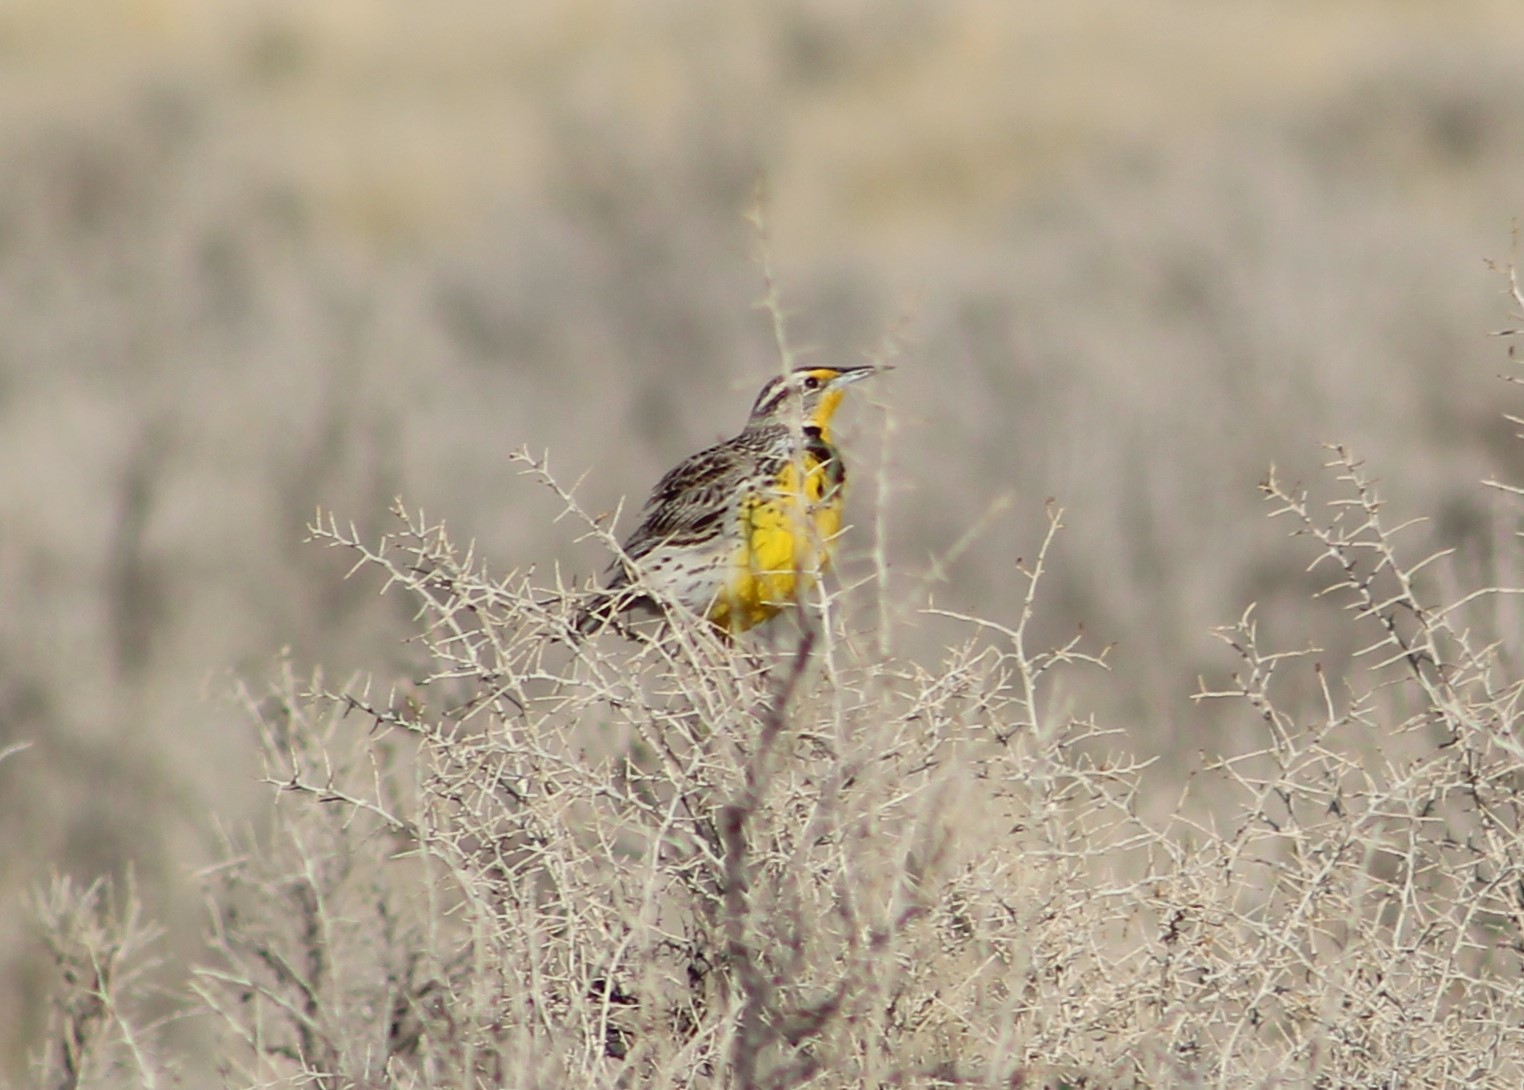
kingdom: Animalia
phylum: Chordata
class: Aves
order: Passeriformes
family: Icteridae
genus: Sturnella
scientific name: Sturnella neglecta
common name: Western meadowlark
